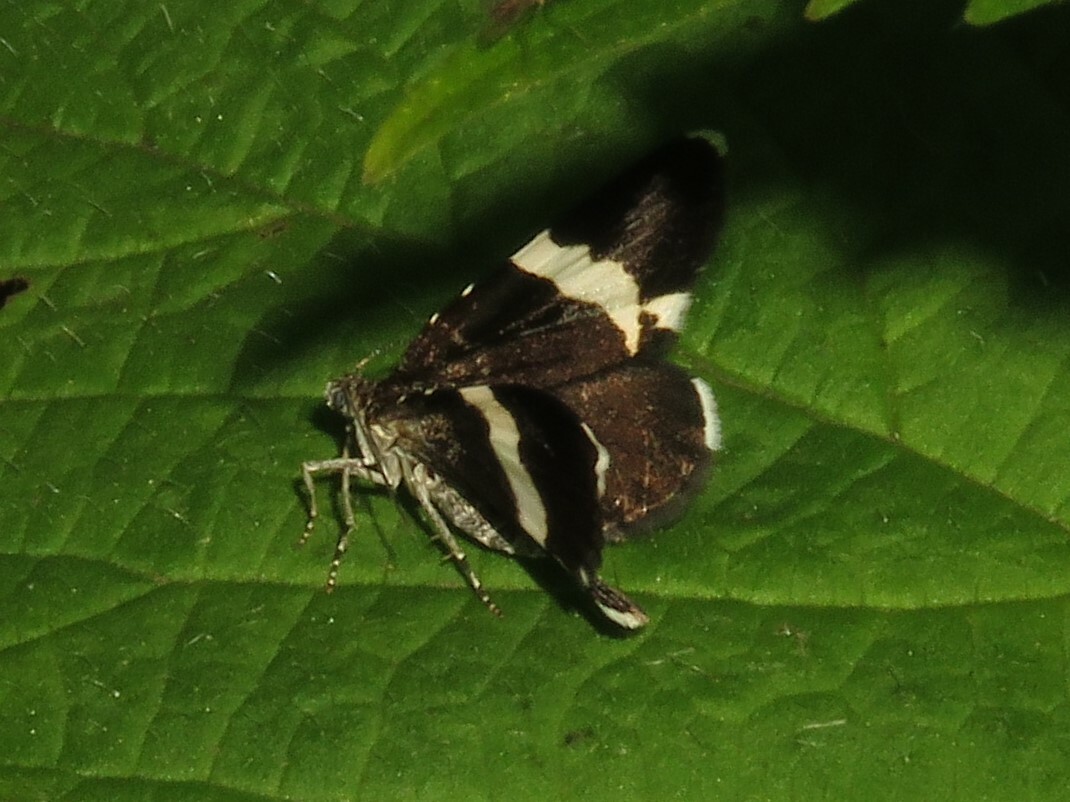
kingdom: Animalia
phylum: Arthropoda
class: Insecta
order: Lepidoptera
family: Geometridae
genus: Trichodezia
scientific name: Trichodezia albovittata
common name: White striped black
